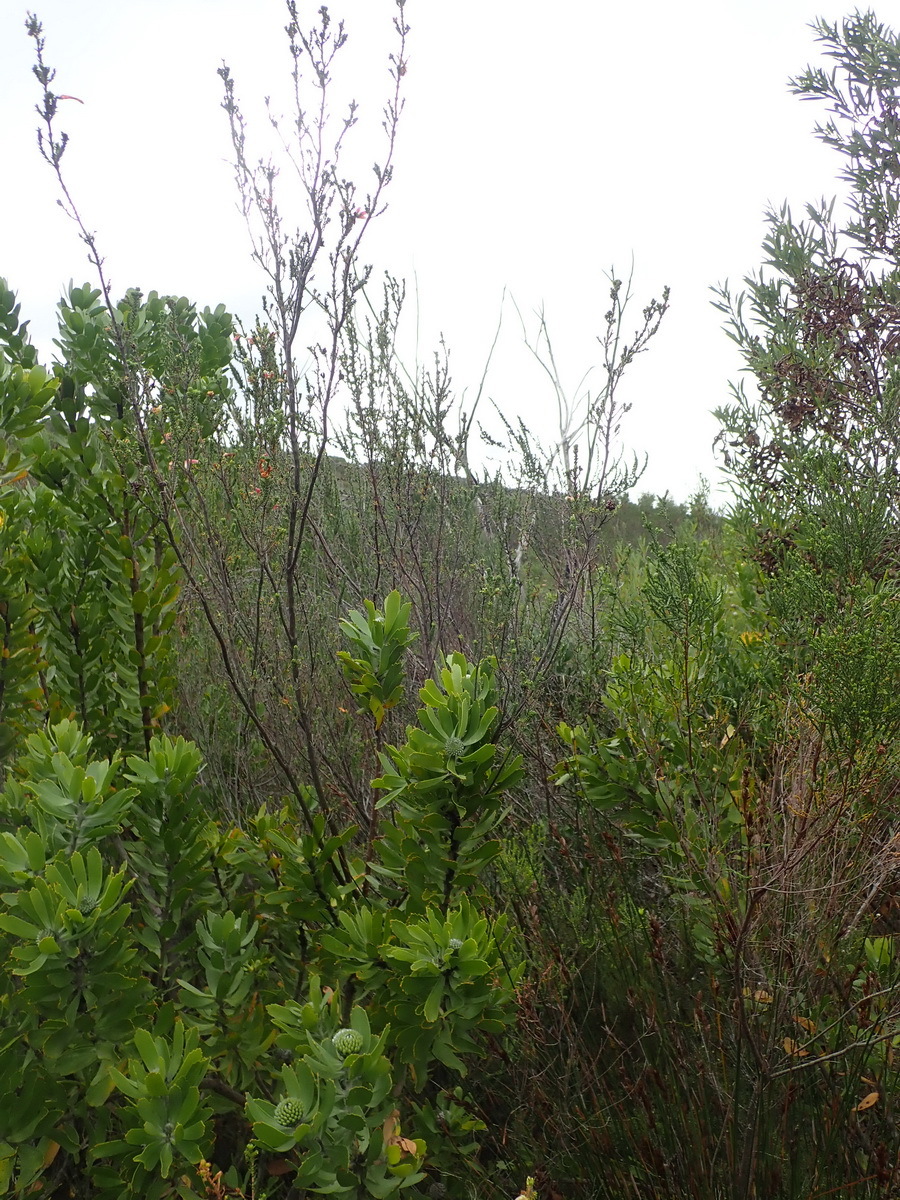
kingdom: Plantae
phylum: Tracheophyta
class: Magnoliopsida
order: Ericales
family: Ericaceae
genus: Erica
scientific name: Erica versicolor
